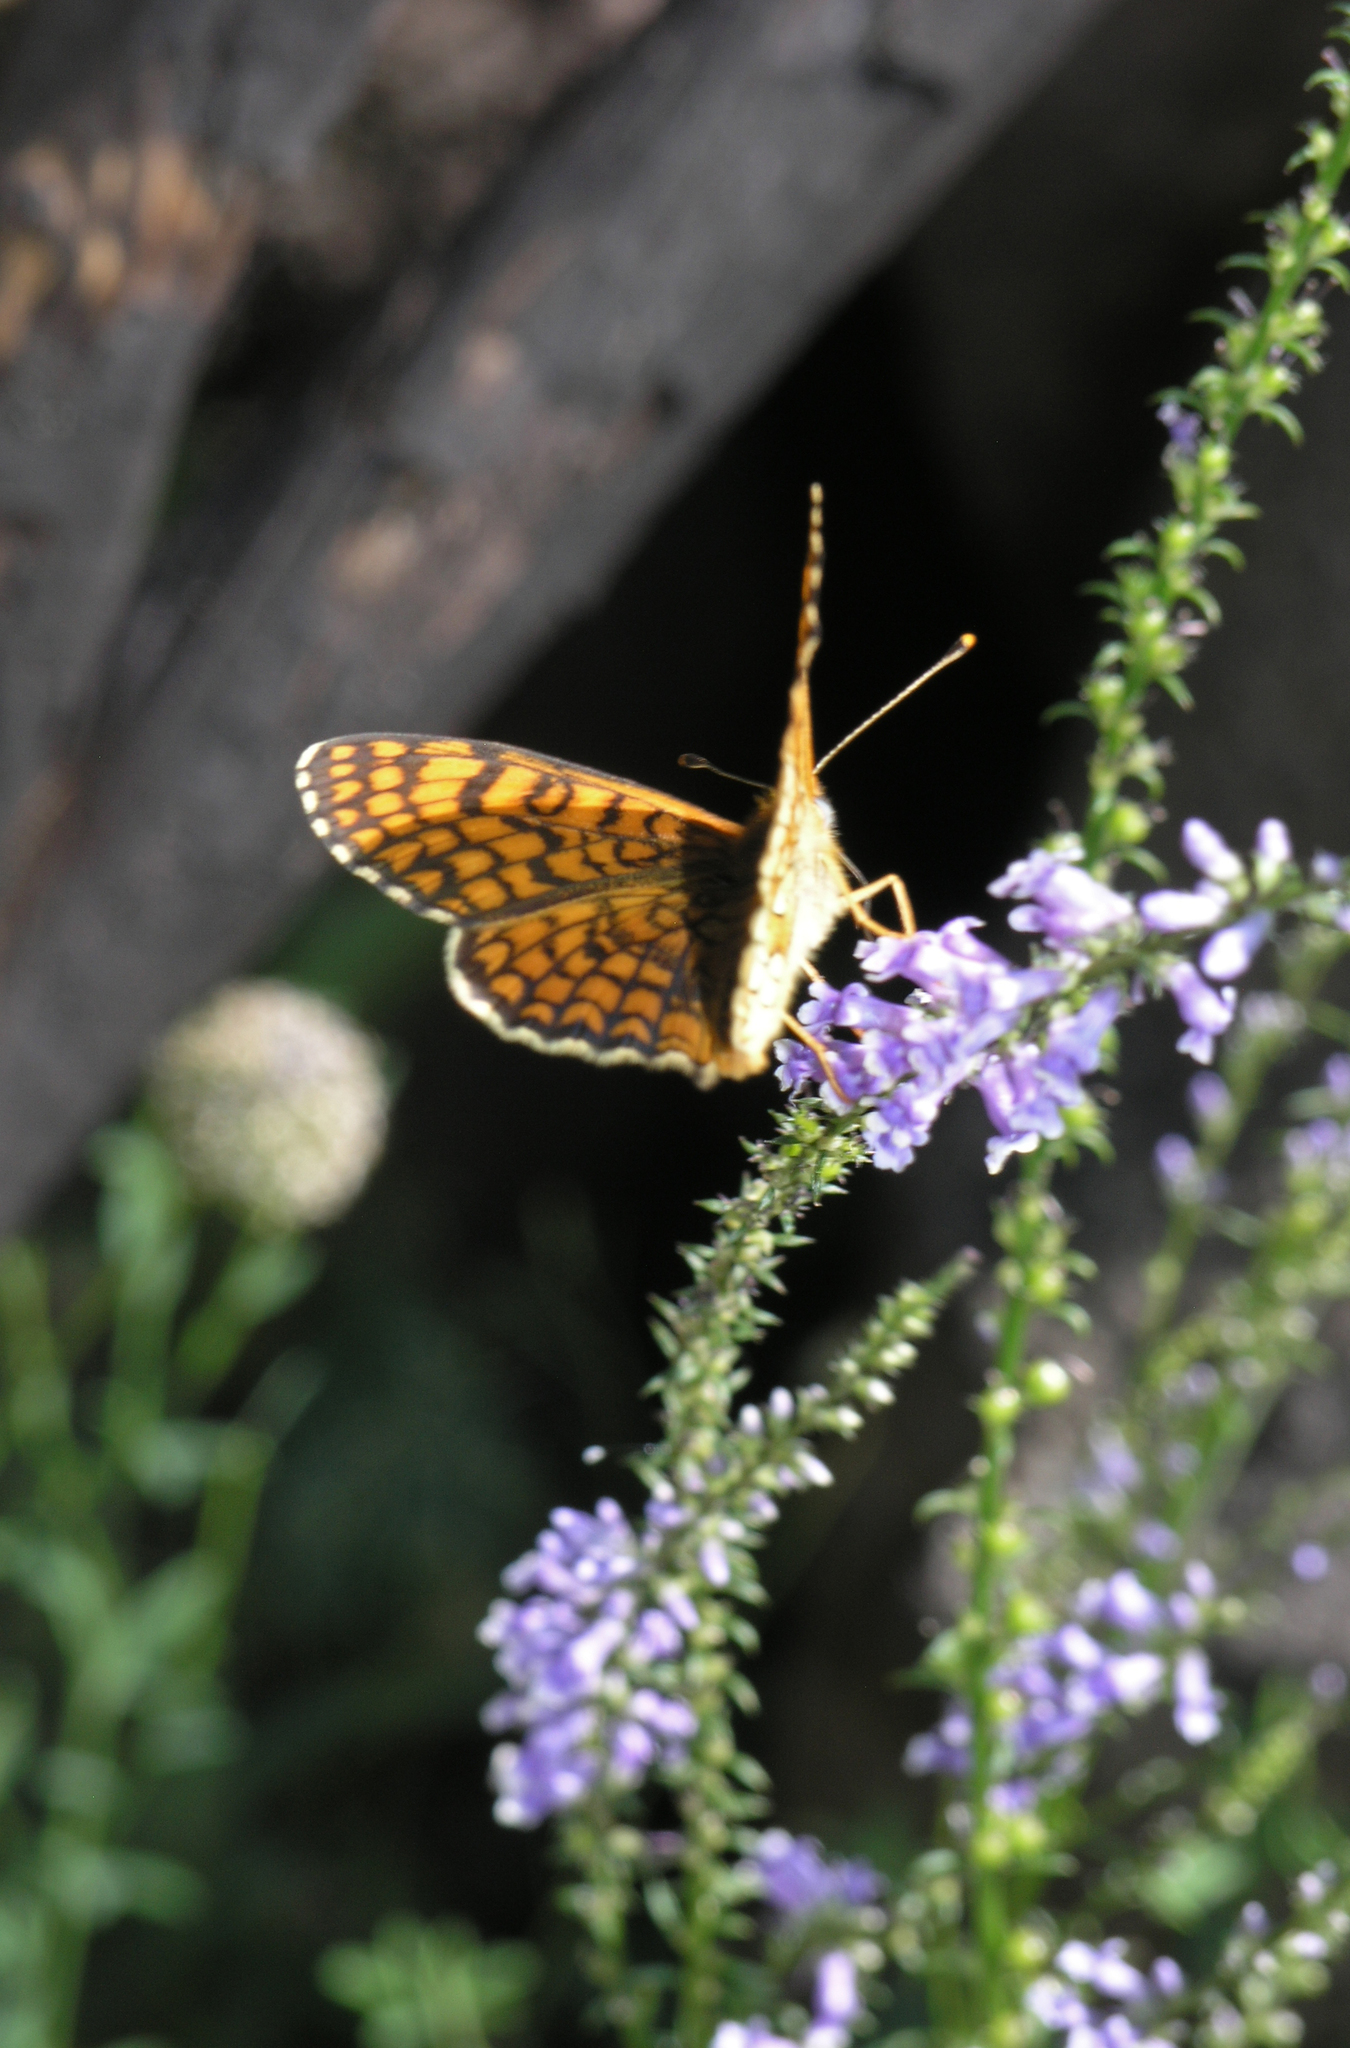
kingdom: Animalia
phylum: Arthropoda
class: Insecta
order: Lepidoptera
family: Nymphalidae
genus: Melitaea
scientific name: Melitaea deione
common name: Provençal fritillary
